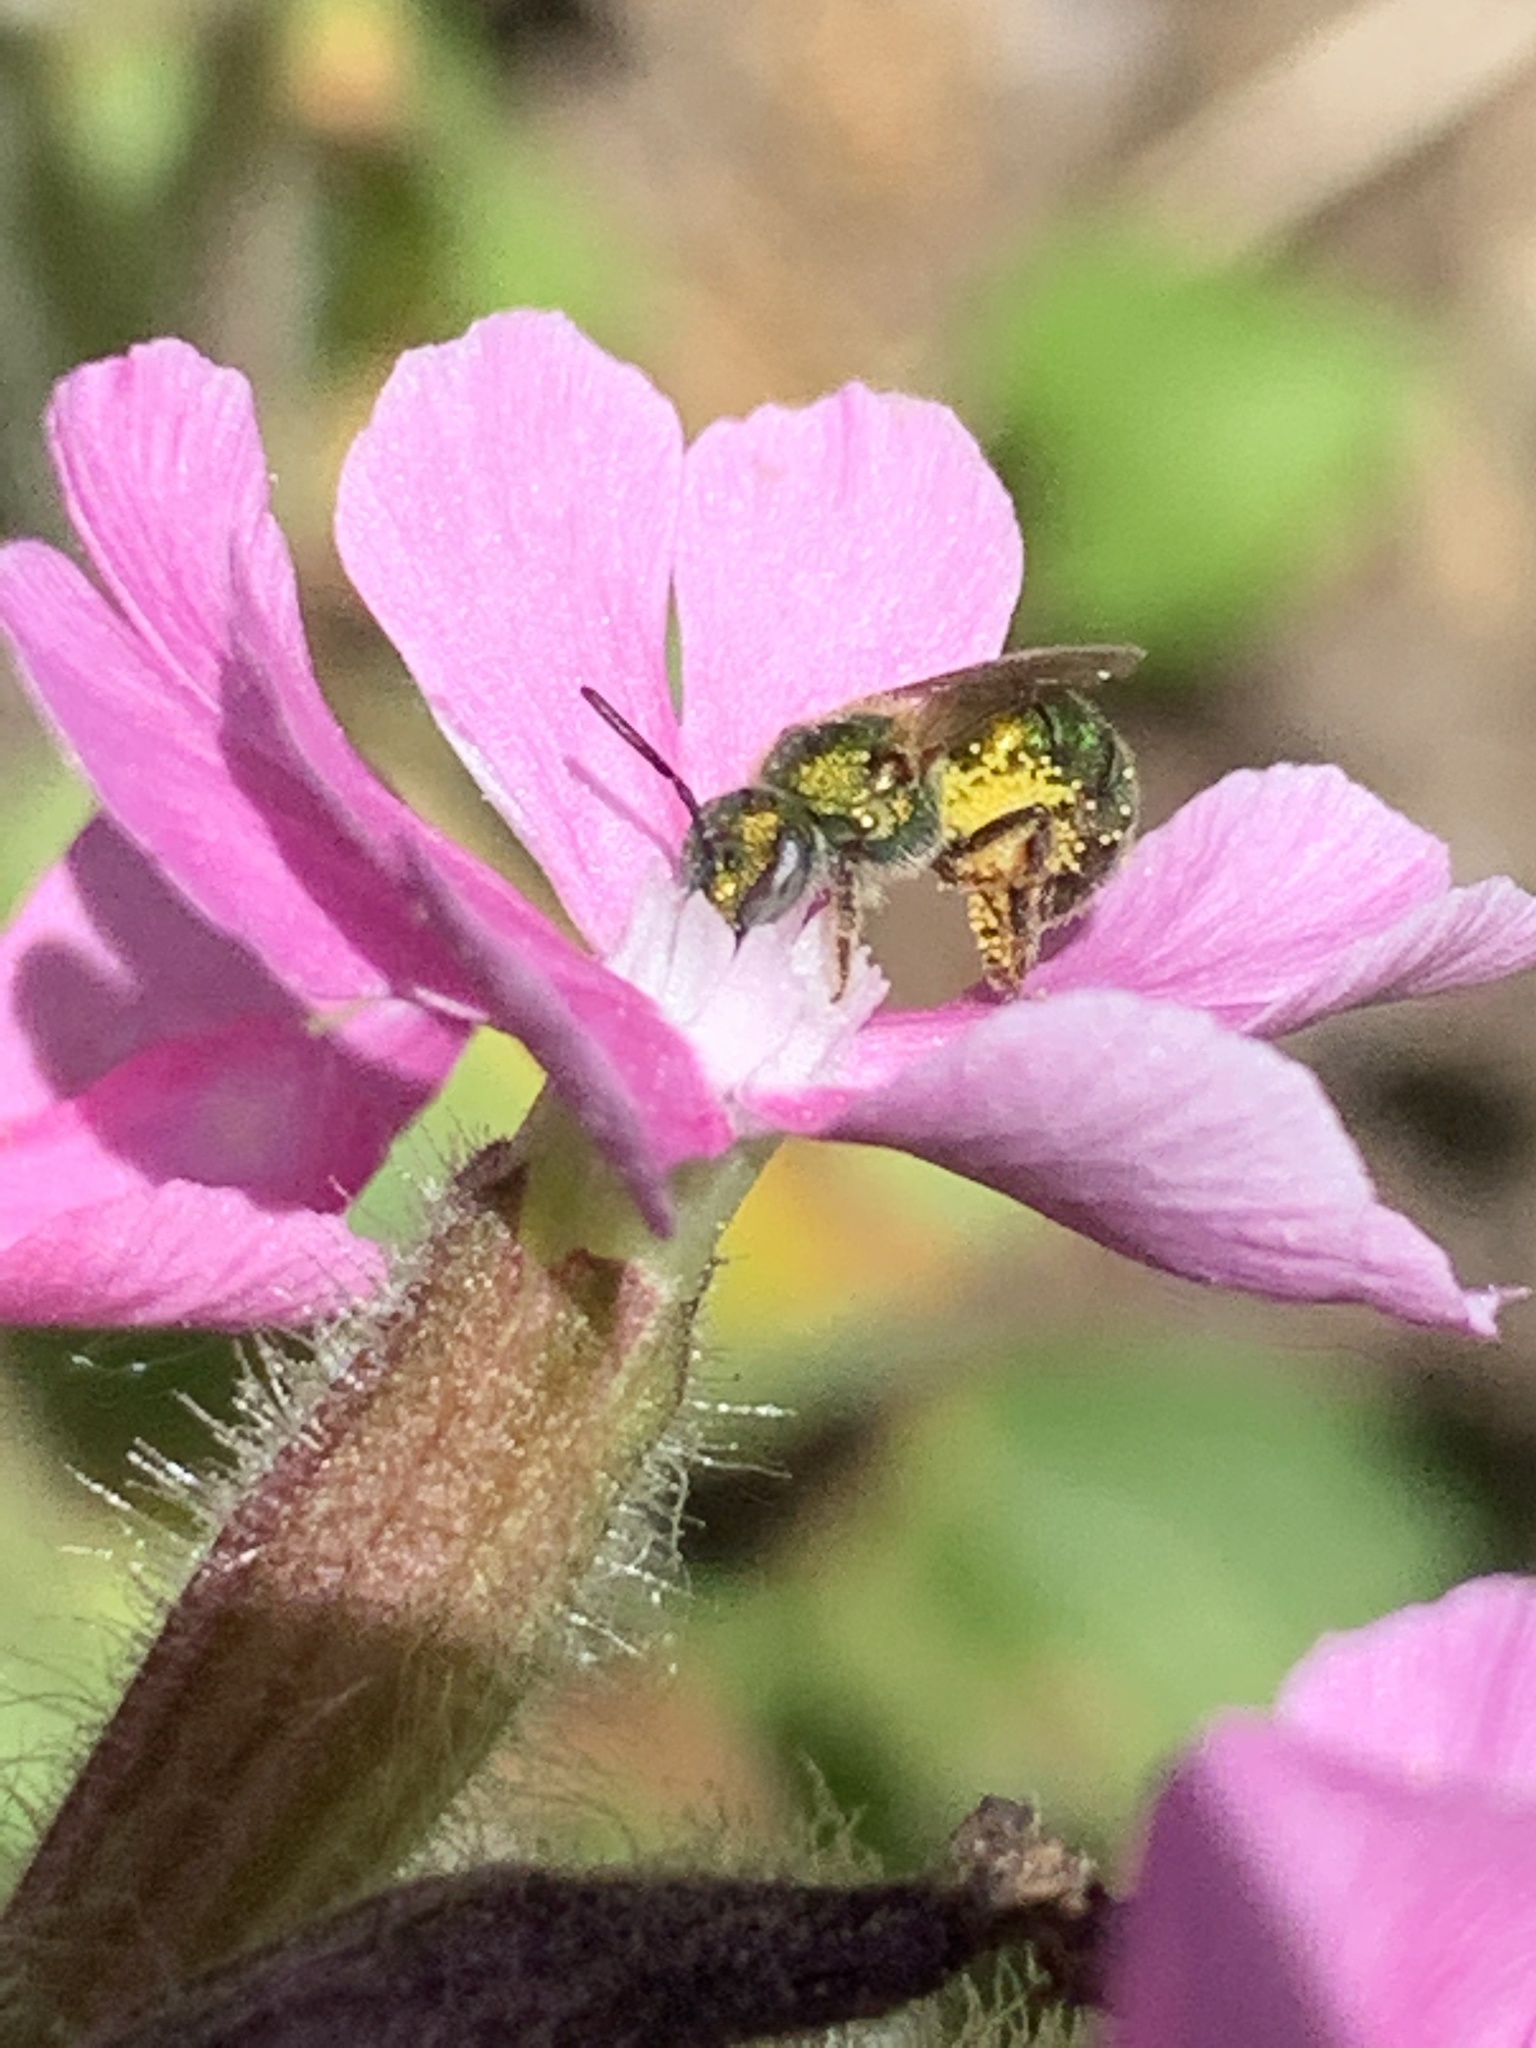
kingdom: Animalia
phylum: Arthropoda
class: Insecta
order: Hymenoptera
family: Halictidae
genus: Augochlorella
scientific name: Augochlorella aurata
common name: Golden sweat bee
